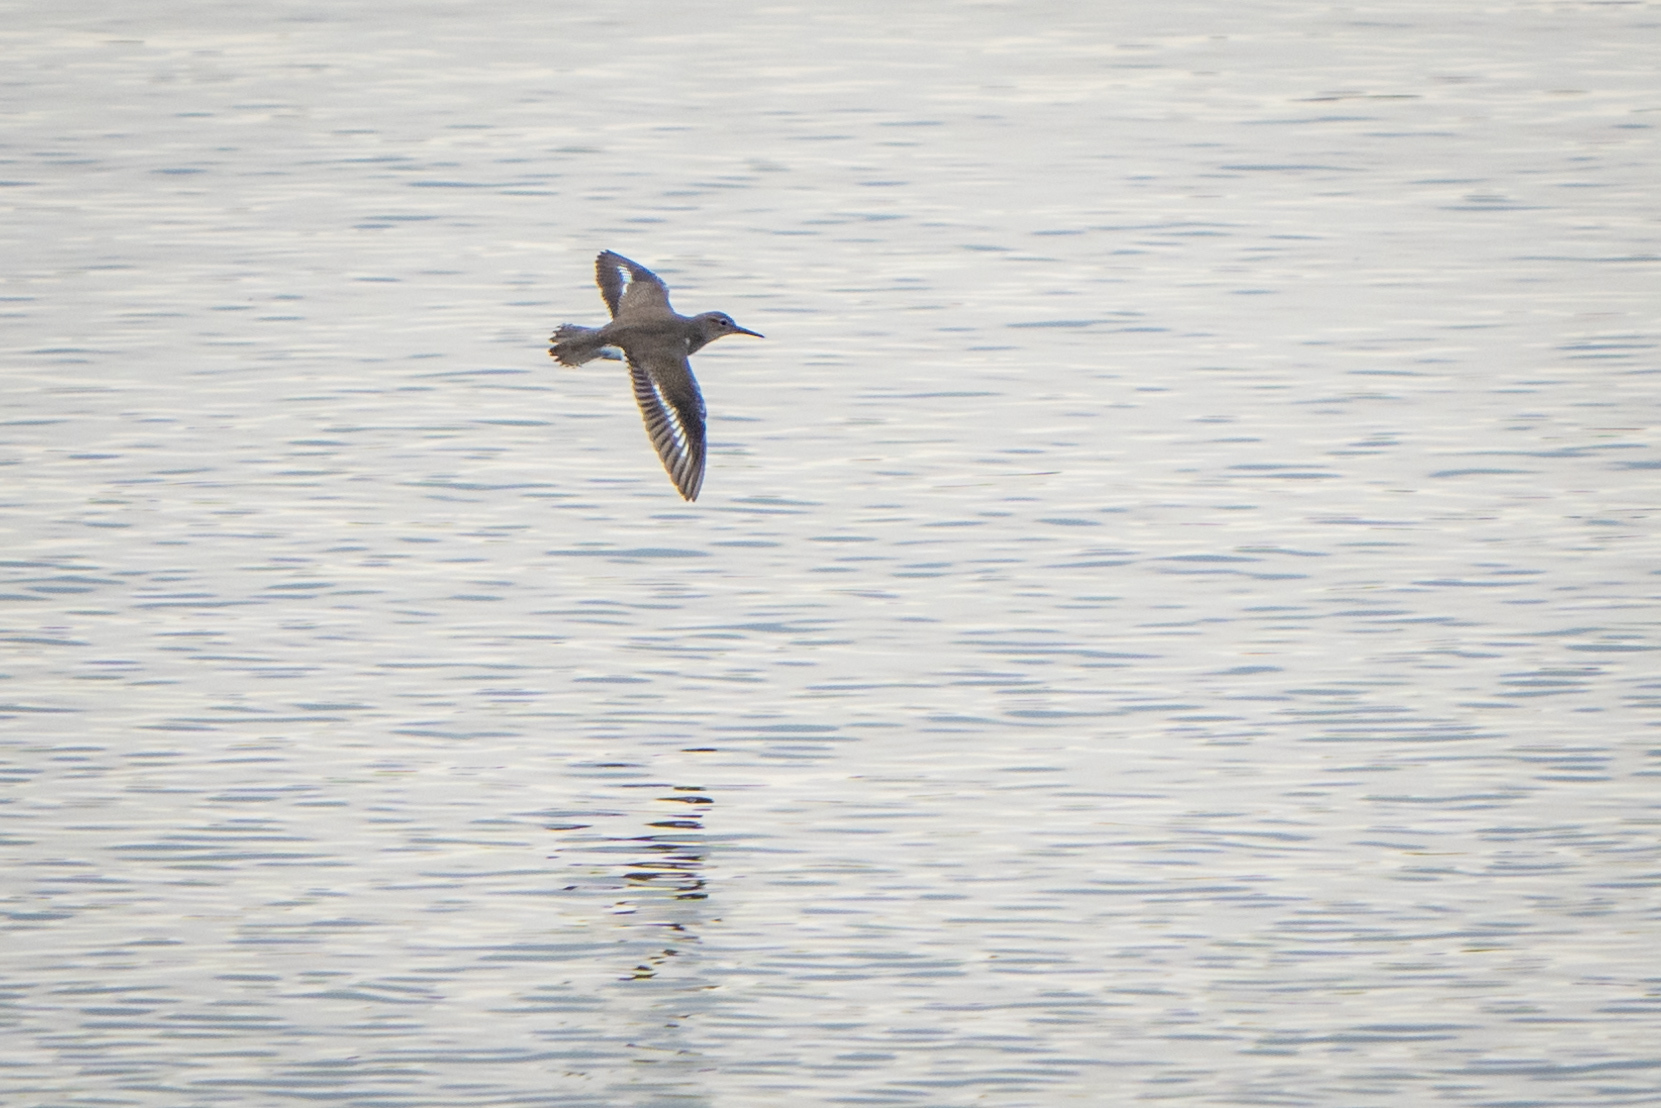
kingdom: Animalia
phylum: Chordata
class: Aves
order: Charadriiformes
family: Scolopacidae
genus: Actitis
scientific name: Actitis macularius
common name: Spotted sandpiper
